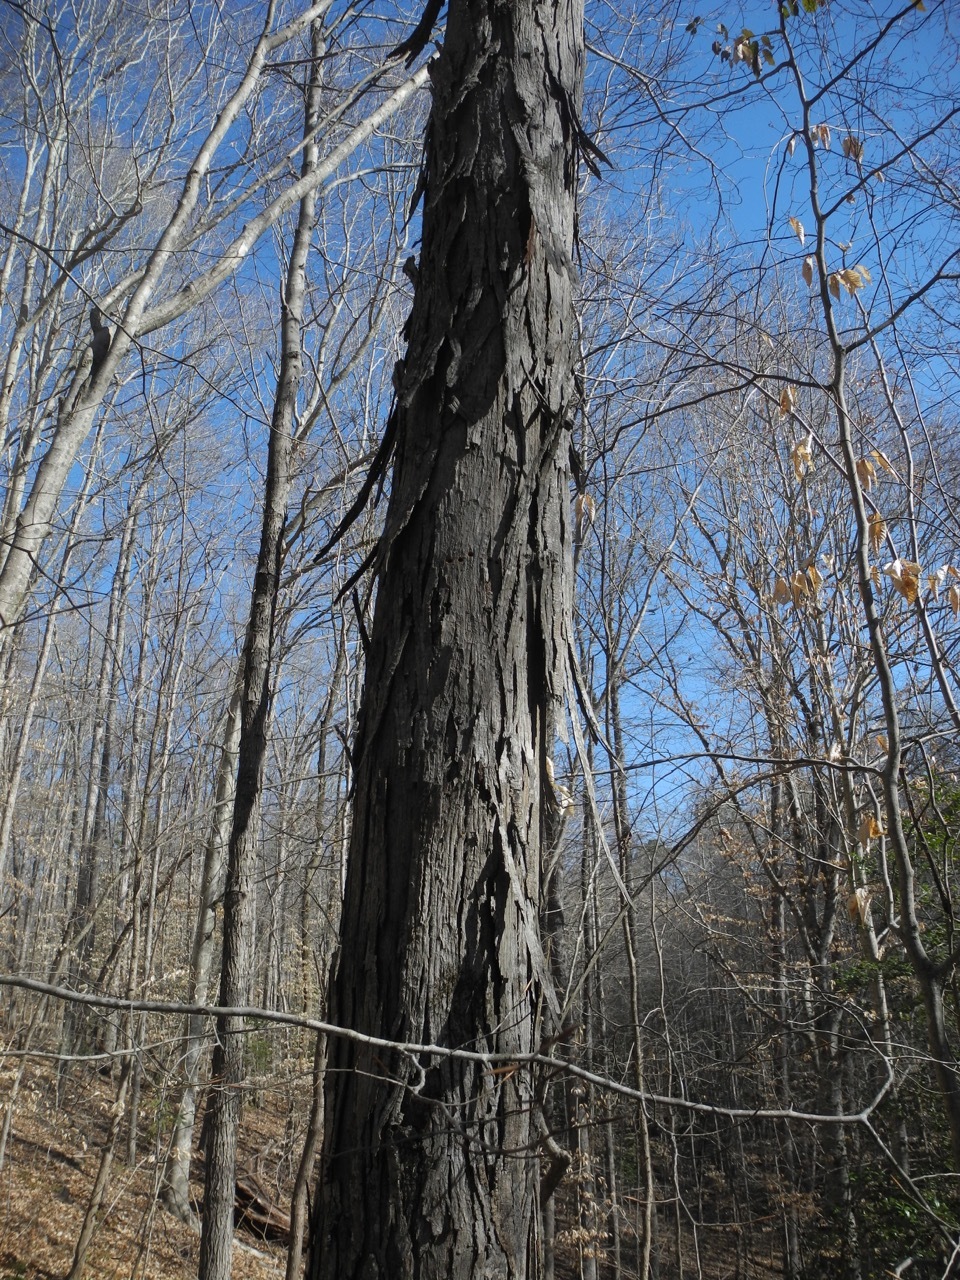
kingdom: Plantae
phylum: Tracheophyta
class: Magnoliopsida
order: Fagales
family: Juglandaceae
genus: Carya
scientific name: Carya ovata
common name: Shagbark hickory
